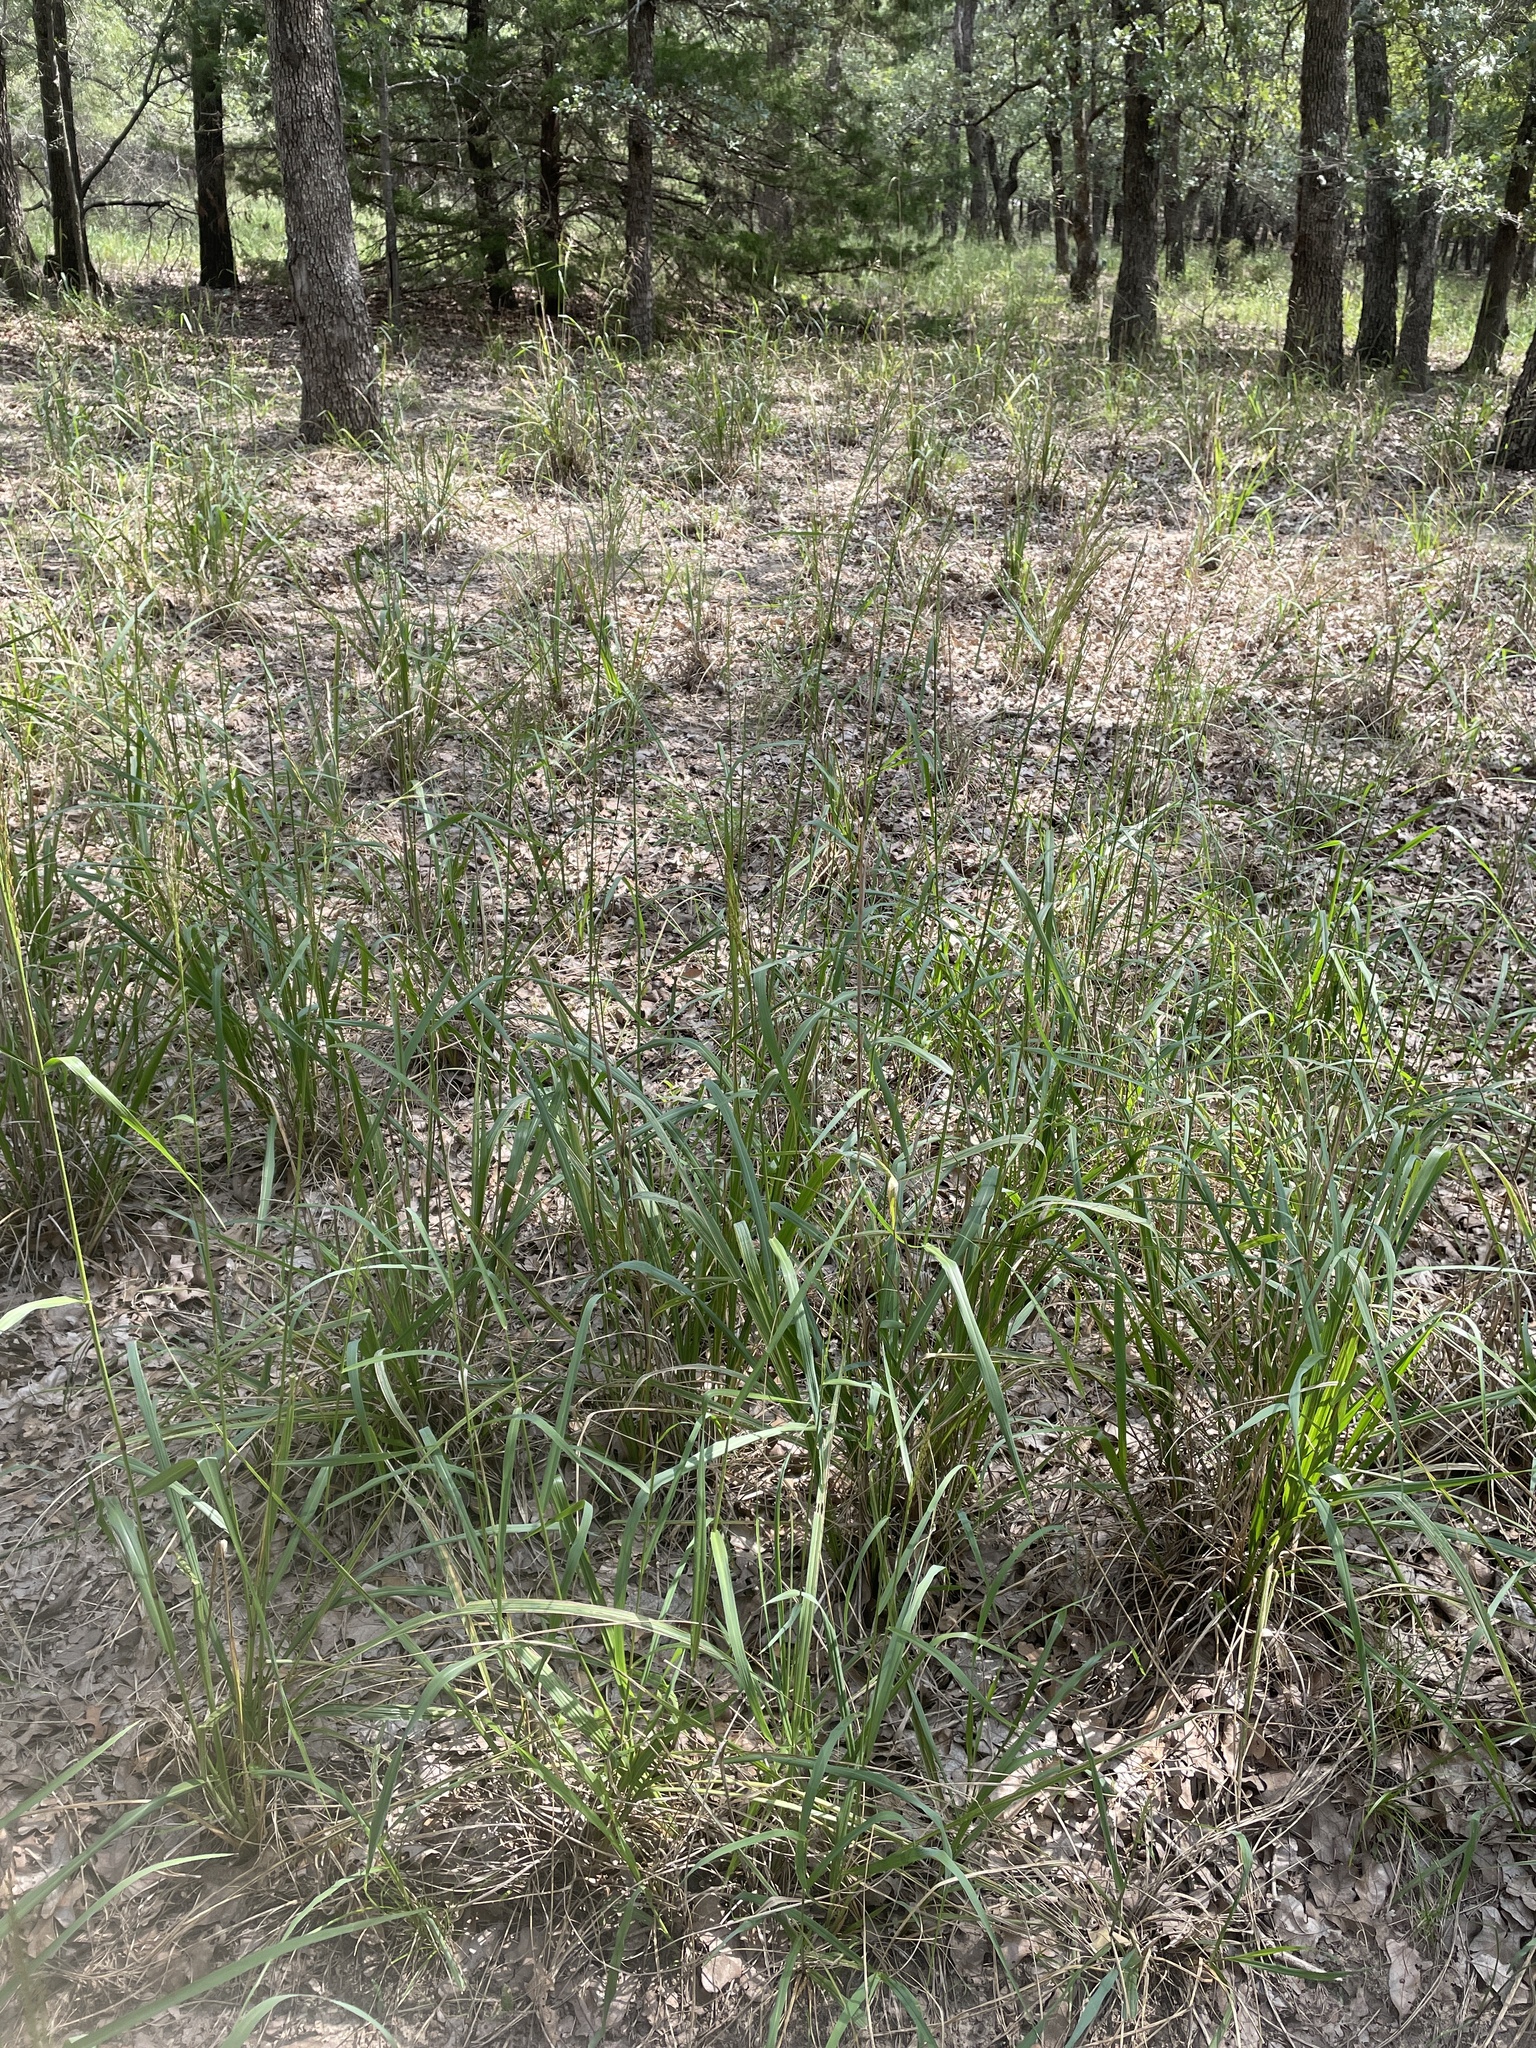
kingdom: Plantae
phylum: Tracheophyta
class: Liliopsida
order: Poales
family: Poaceae
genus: Tridens
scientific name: Tridens flavus
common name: Purpletop
